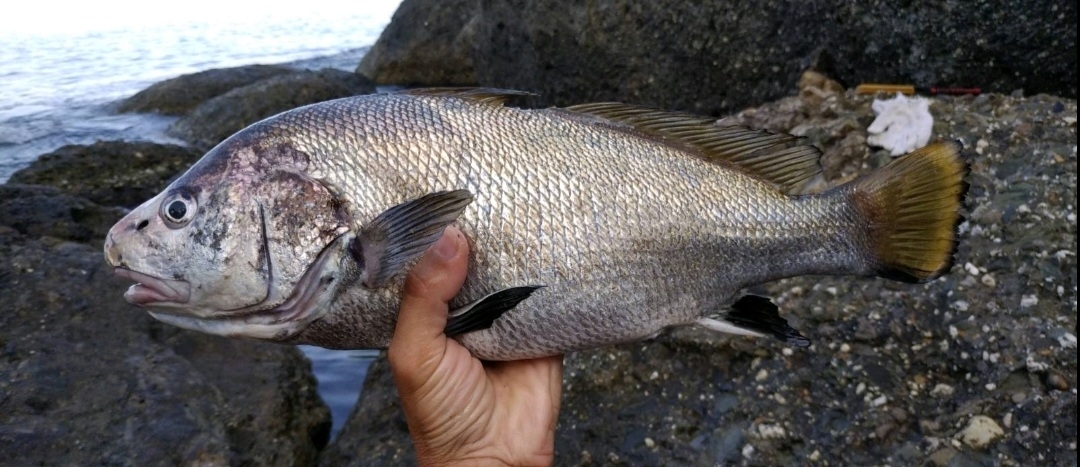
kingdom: Animalia
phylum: Chordata
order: Perciformes
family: Sciaenidae
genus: Sciaena
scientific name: Sciaena umbra
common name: Brown meagre
